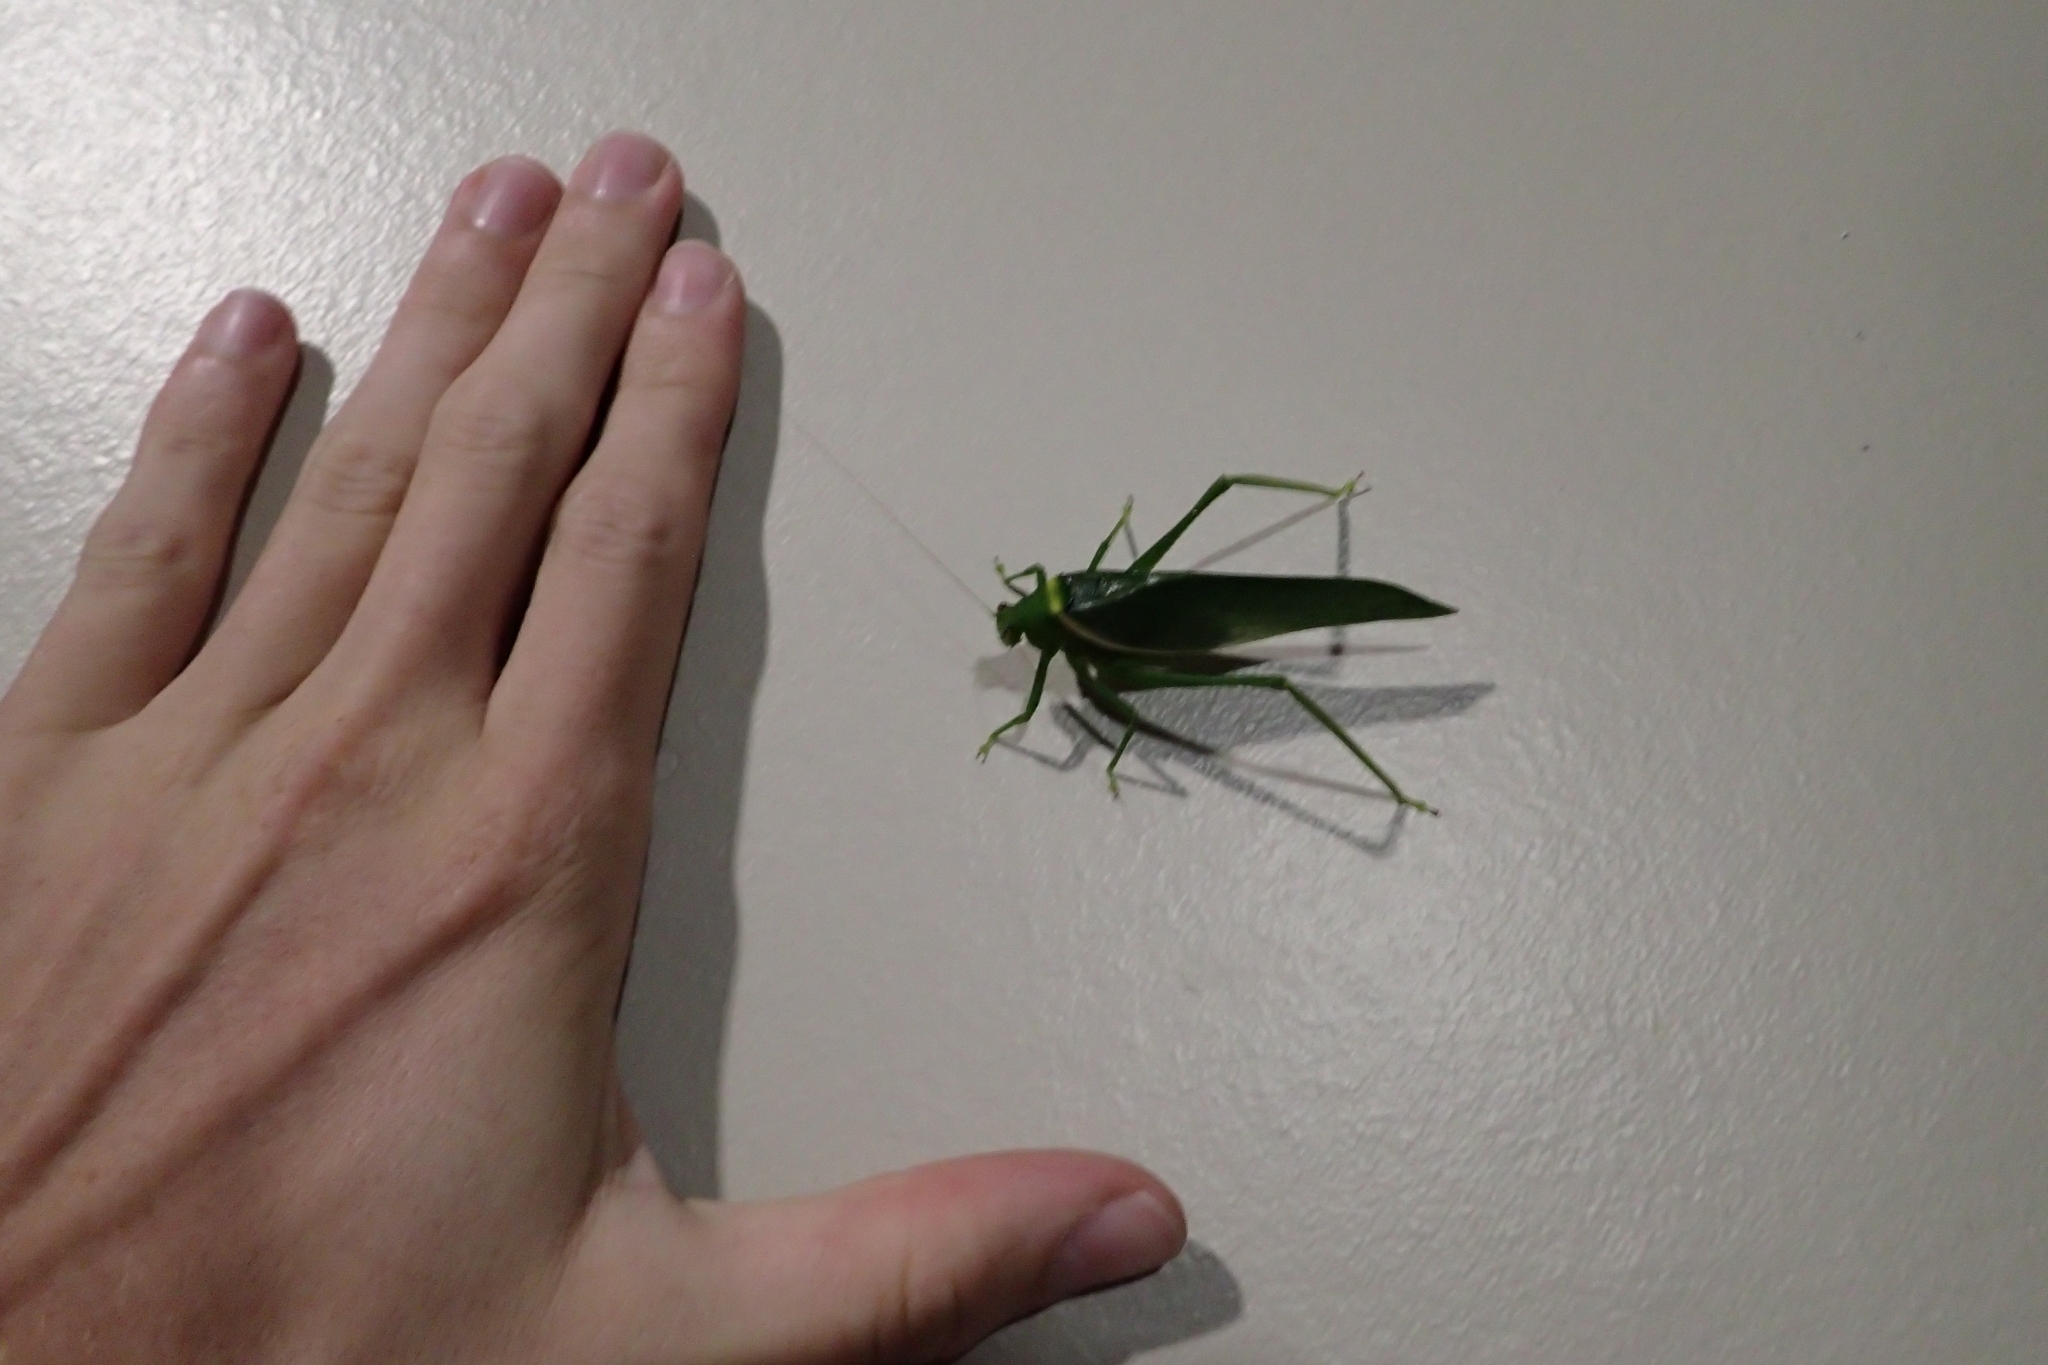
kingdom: Animalia
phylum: Arthropoda
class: Insecta
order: Orthoptera
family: Tettigoniidae
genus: Paracaedicia
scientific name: Paracaedicia serrata
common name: Serrated bush katydid
